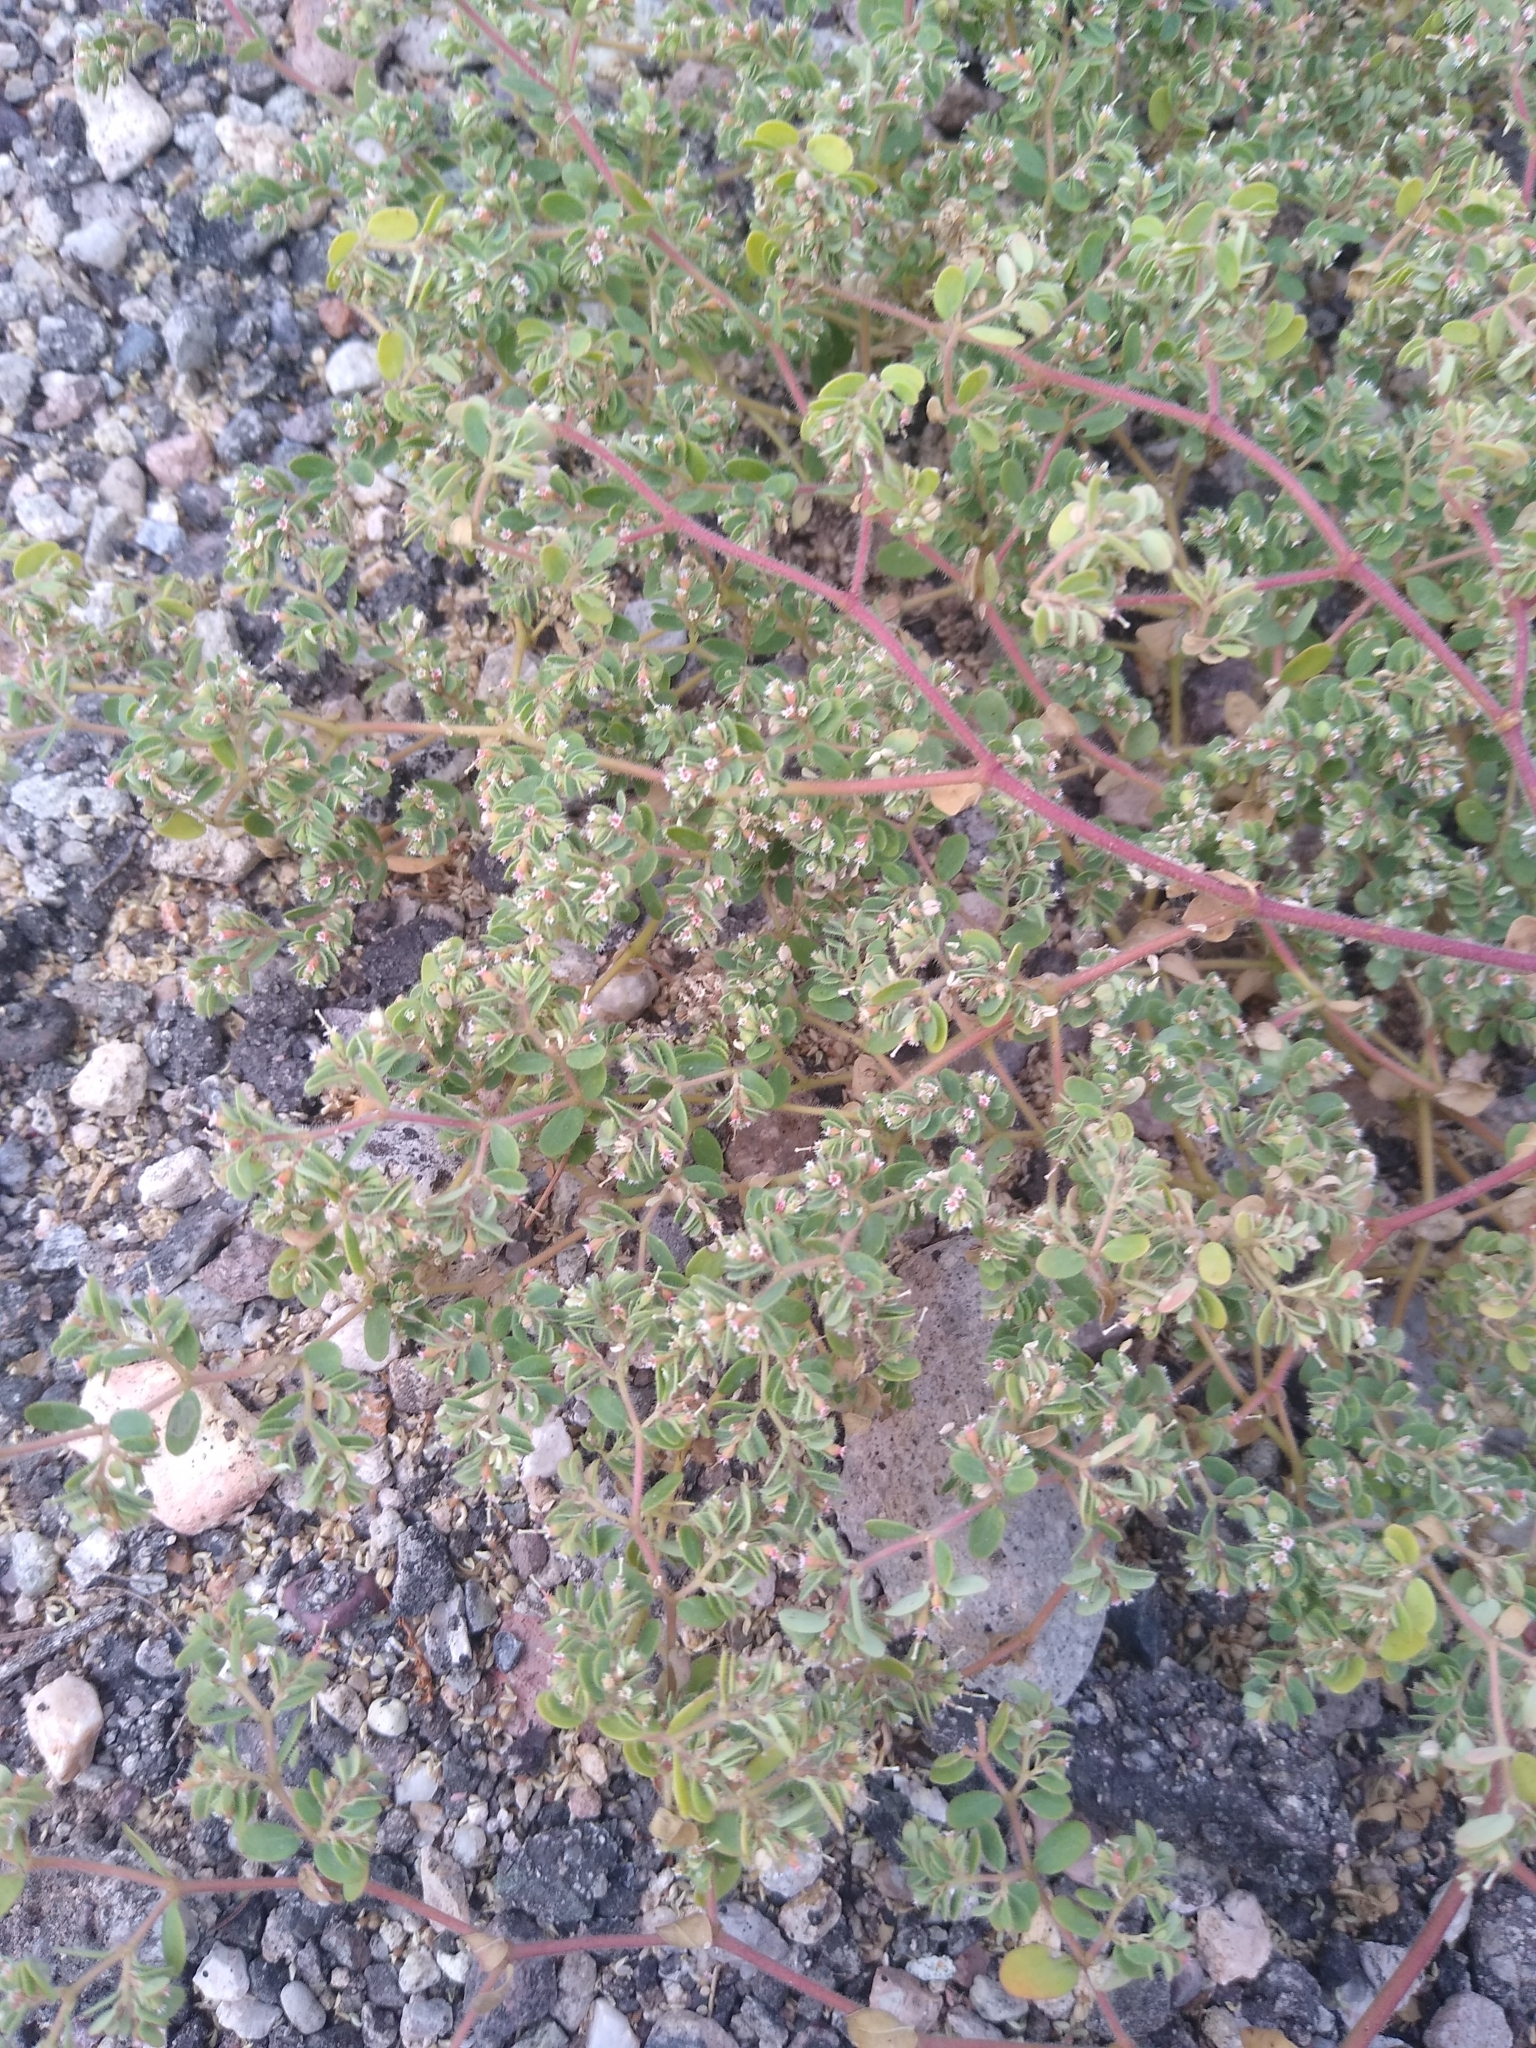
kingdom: Plantae
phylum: Tracheophyta
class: Magnoliopsida
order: Malpighiales
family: Euphorbiaceae
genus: Euphorbia
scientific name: Euphorbia setiloba
